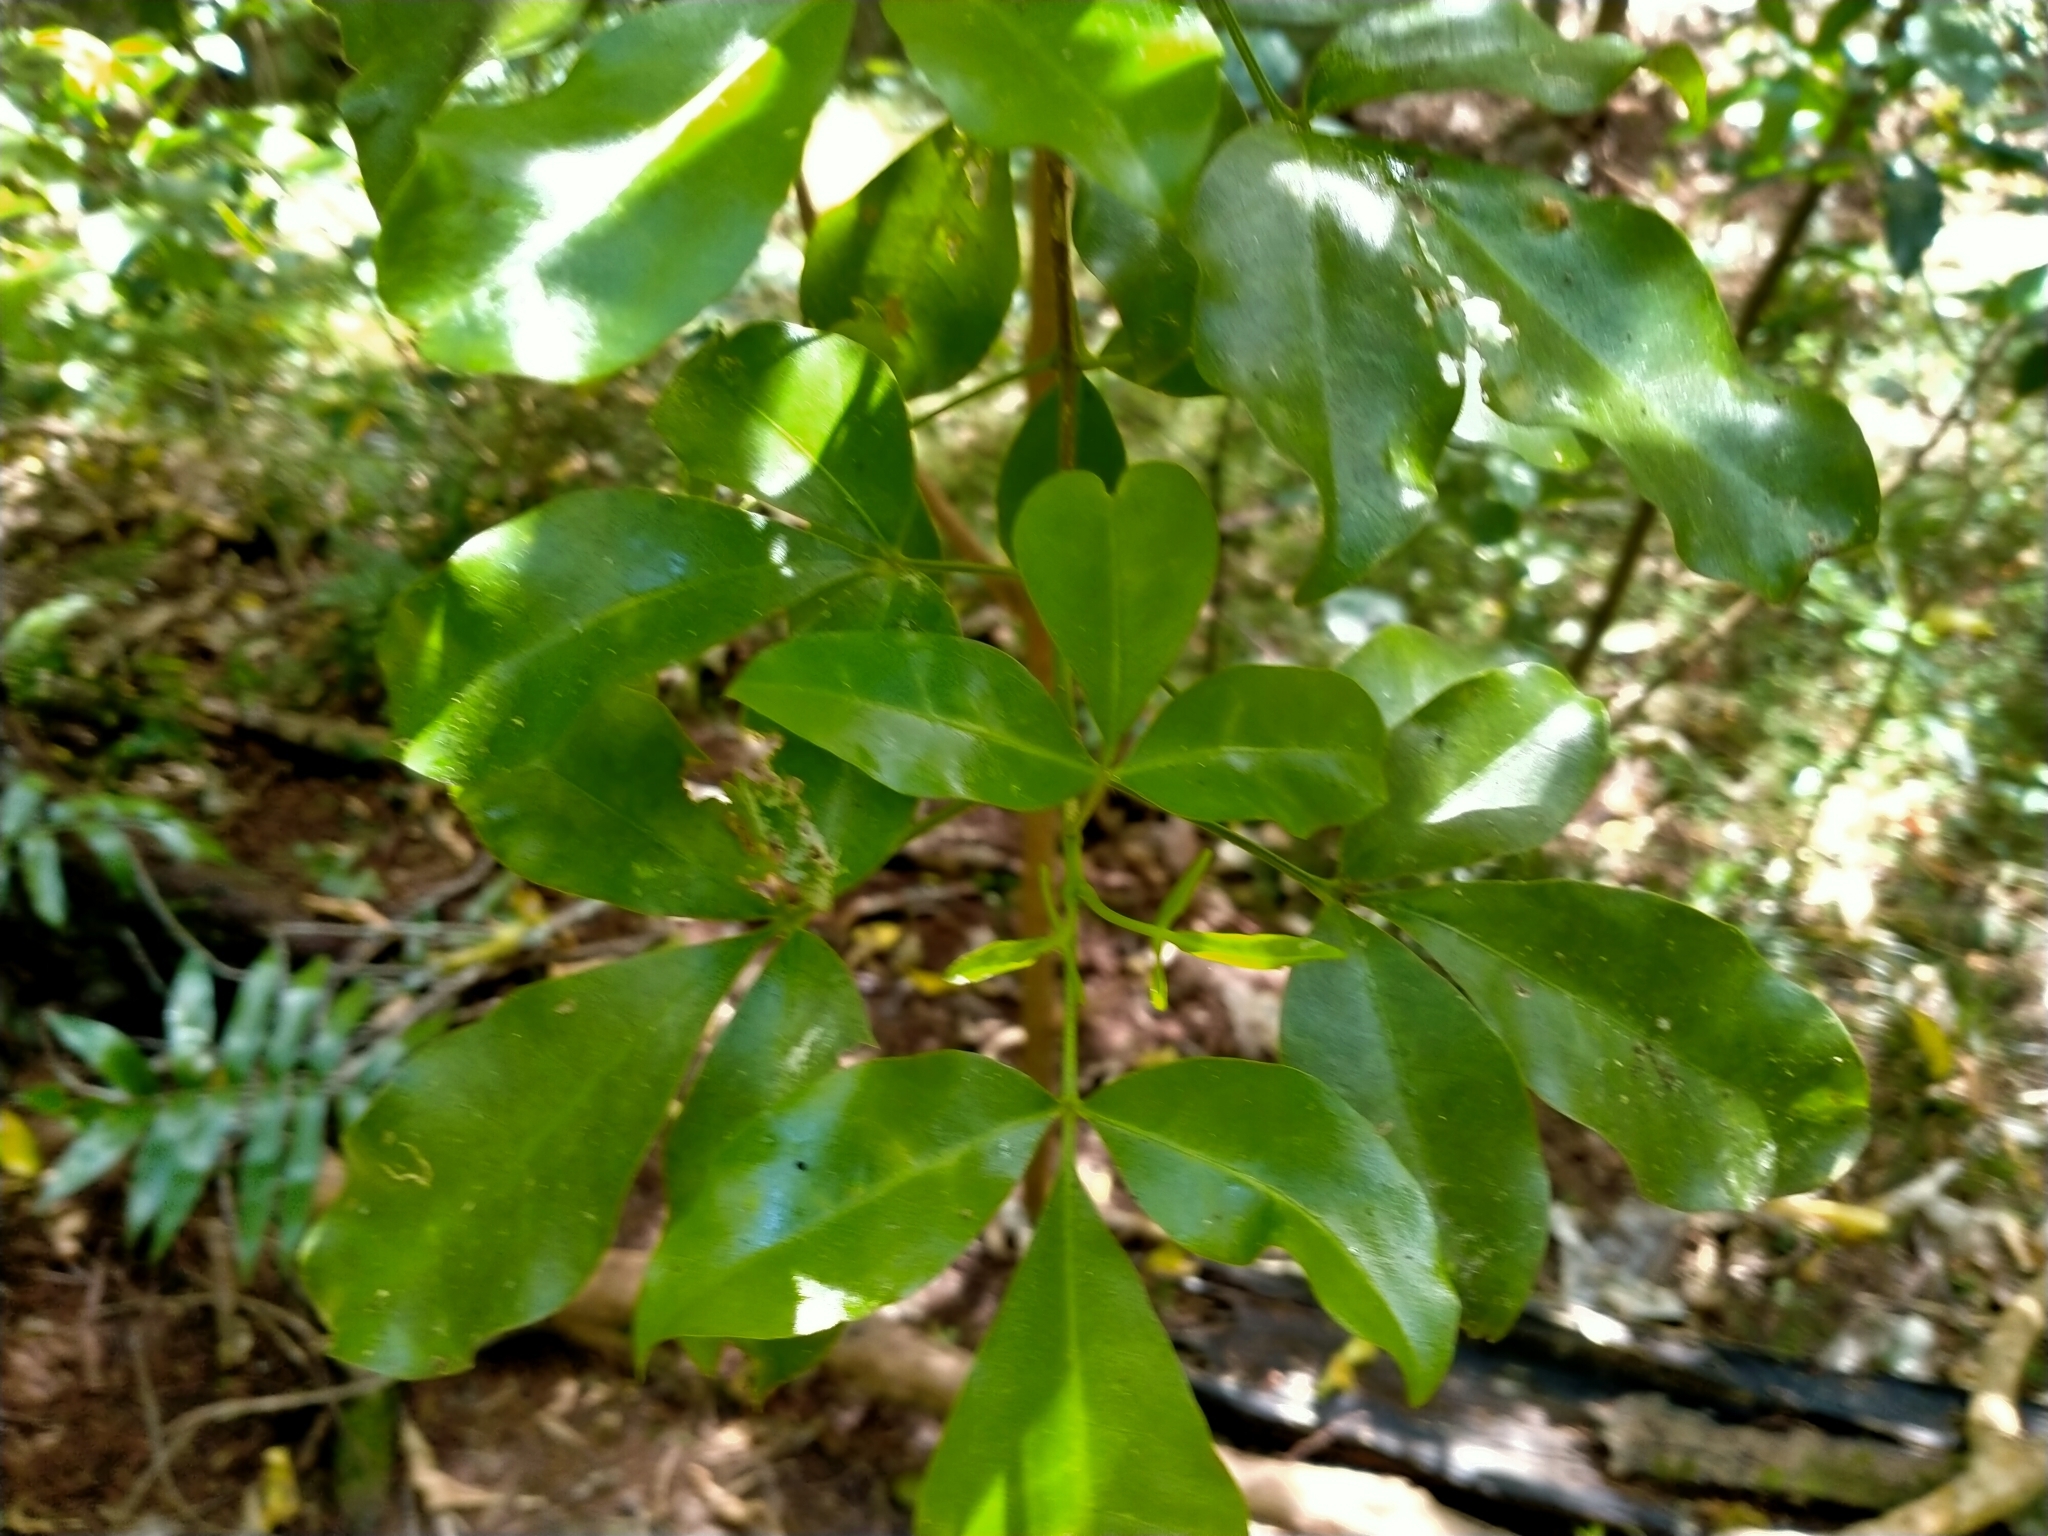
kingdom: Plantae
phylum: Tracheophyta
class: Magnoliopsida
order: Sapindales
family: Rutaceae
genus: Melicope
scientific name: Melicope ternata
